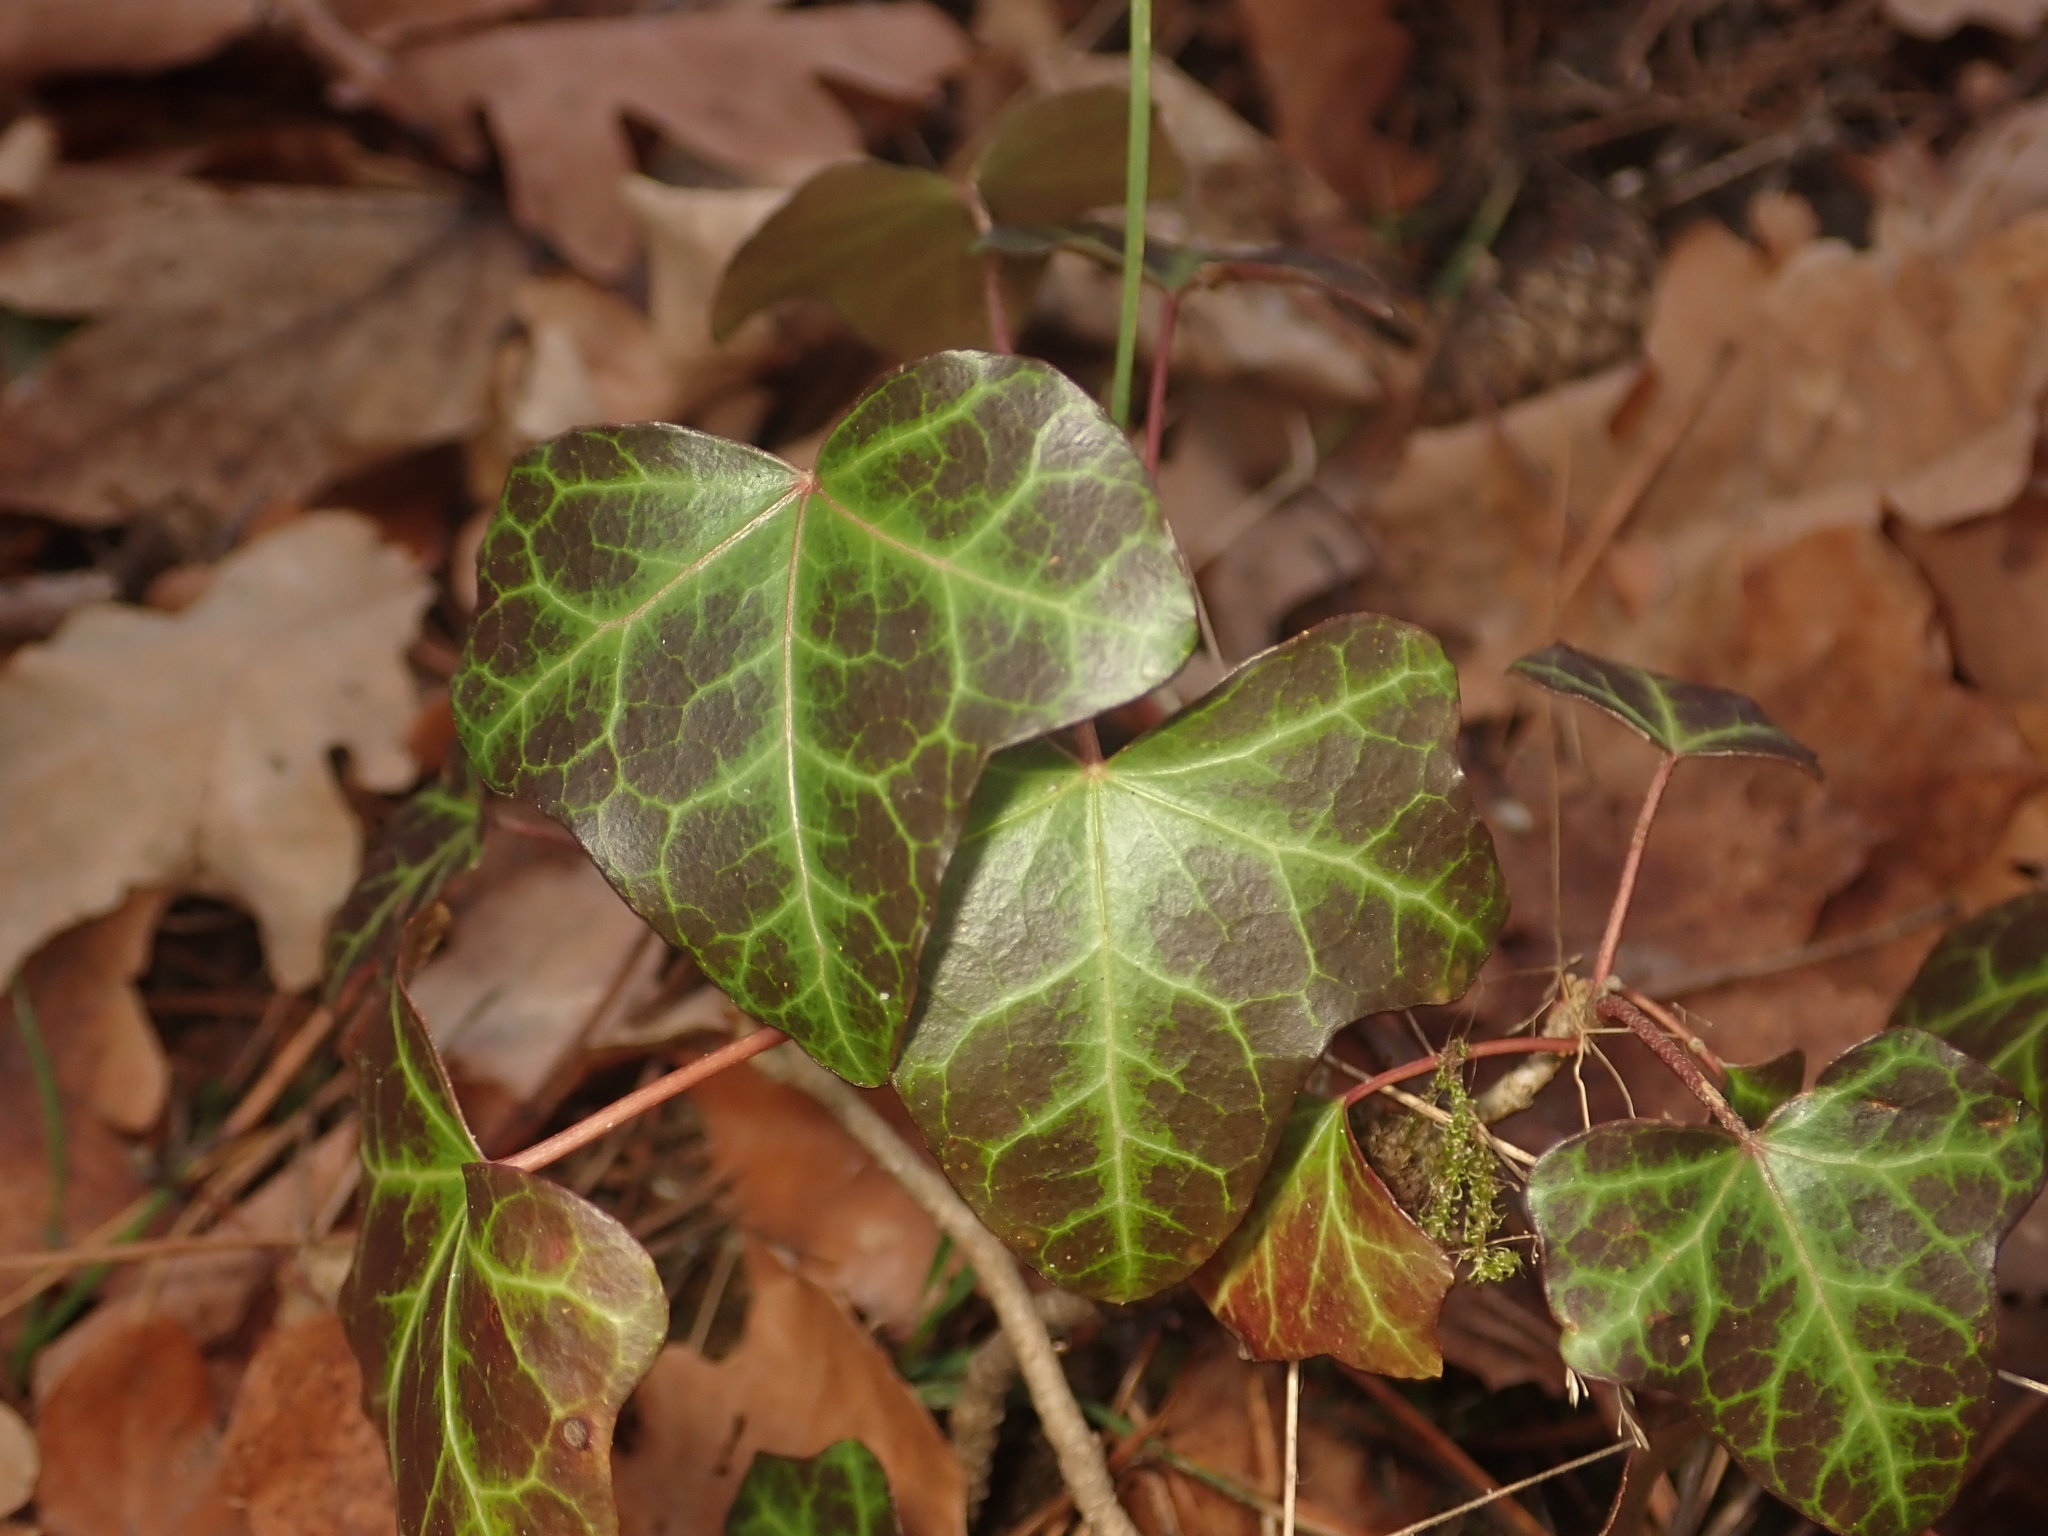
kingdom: Plantae
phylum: Tracheophyta
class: Magnoliopsida
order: Apiales
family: Araliaceae
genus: Hedera
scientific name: Hedera helix
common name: Ivy
